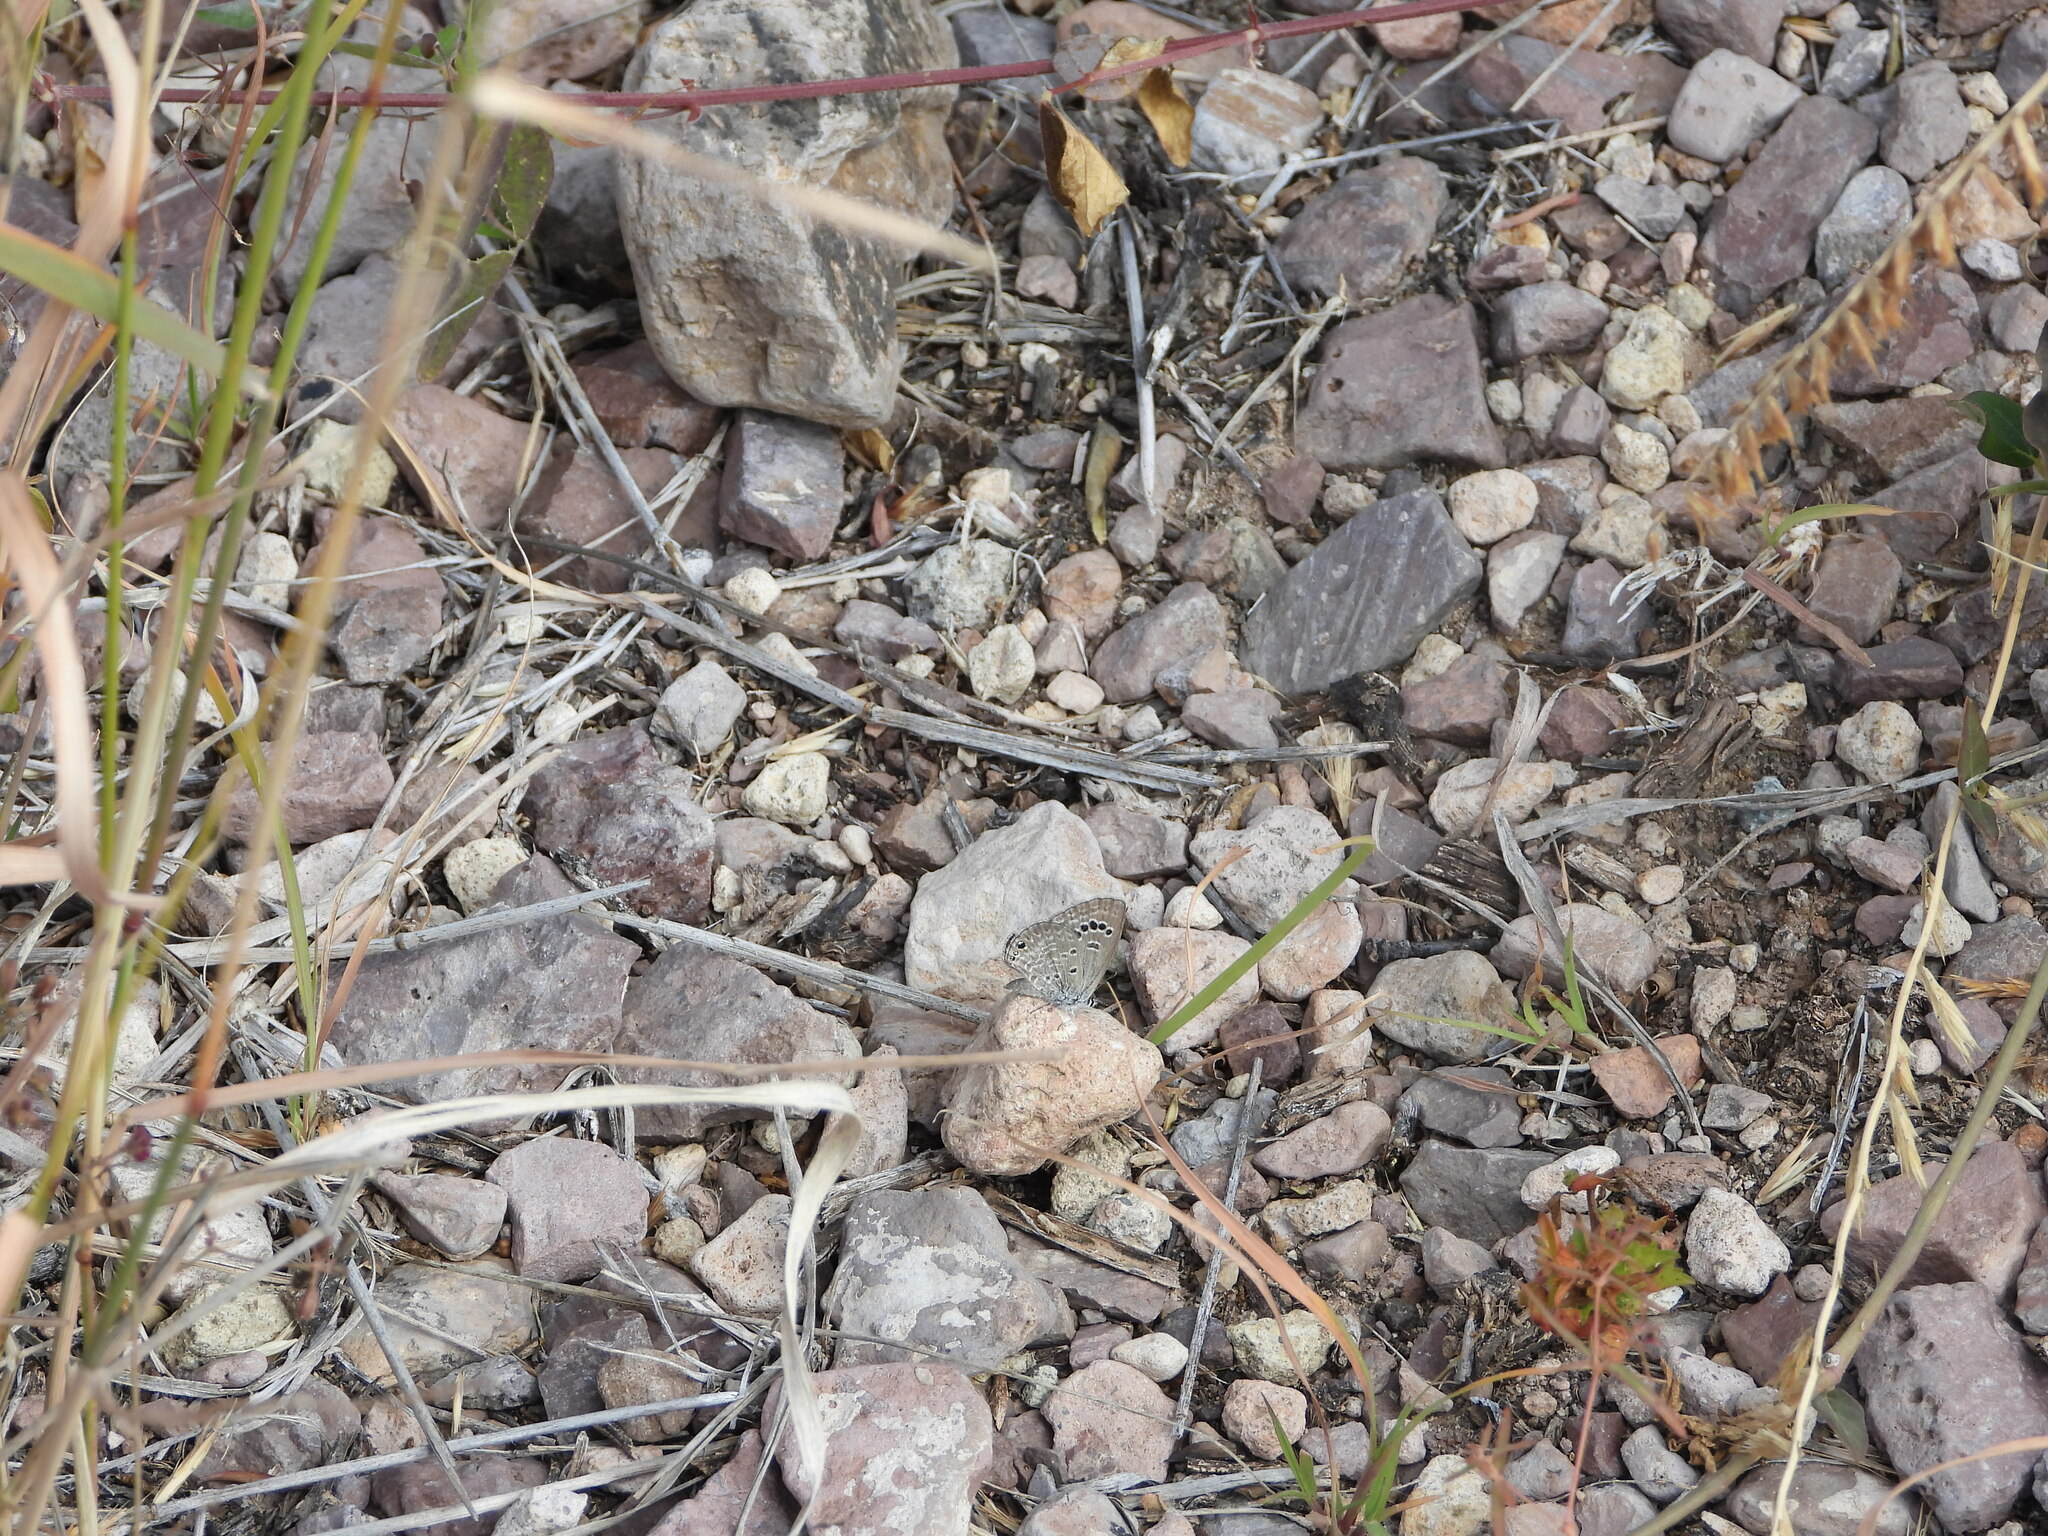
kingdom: Animalia
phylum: Arthropoda
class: Insecta
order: Lepidoptera
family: Lycaenidae
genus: Echinargus
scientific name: Echinargus isola
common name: Reakirt's blue
